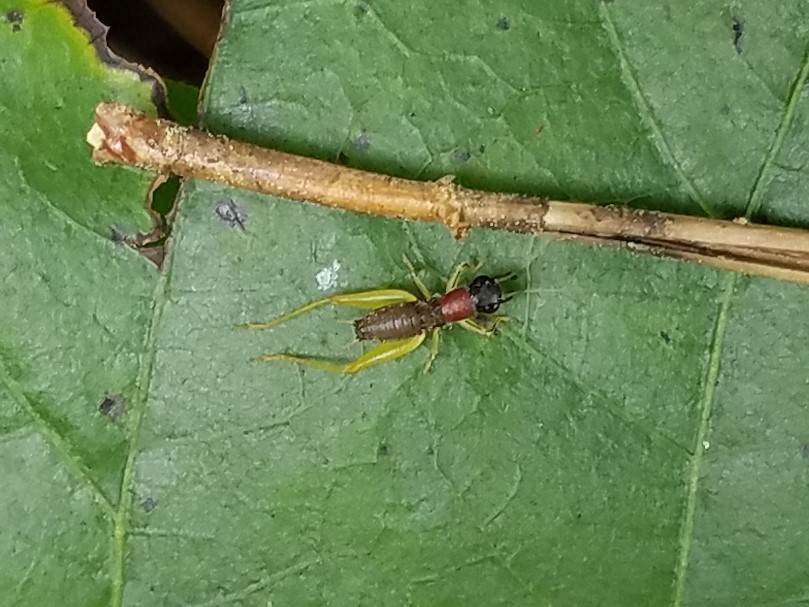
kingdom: Animalia
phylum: Arthropoda
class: Insecta
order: Orthoptera
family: Trigonidiidae
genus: Phyllopalpus
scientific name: Phyllopalpus pulchellus
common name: Handsome trig
